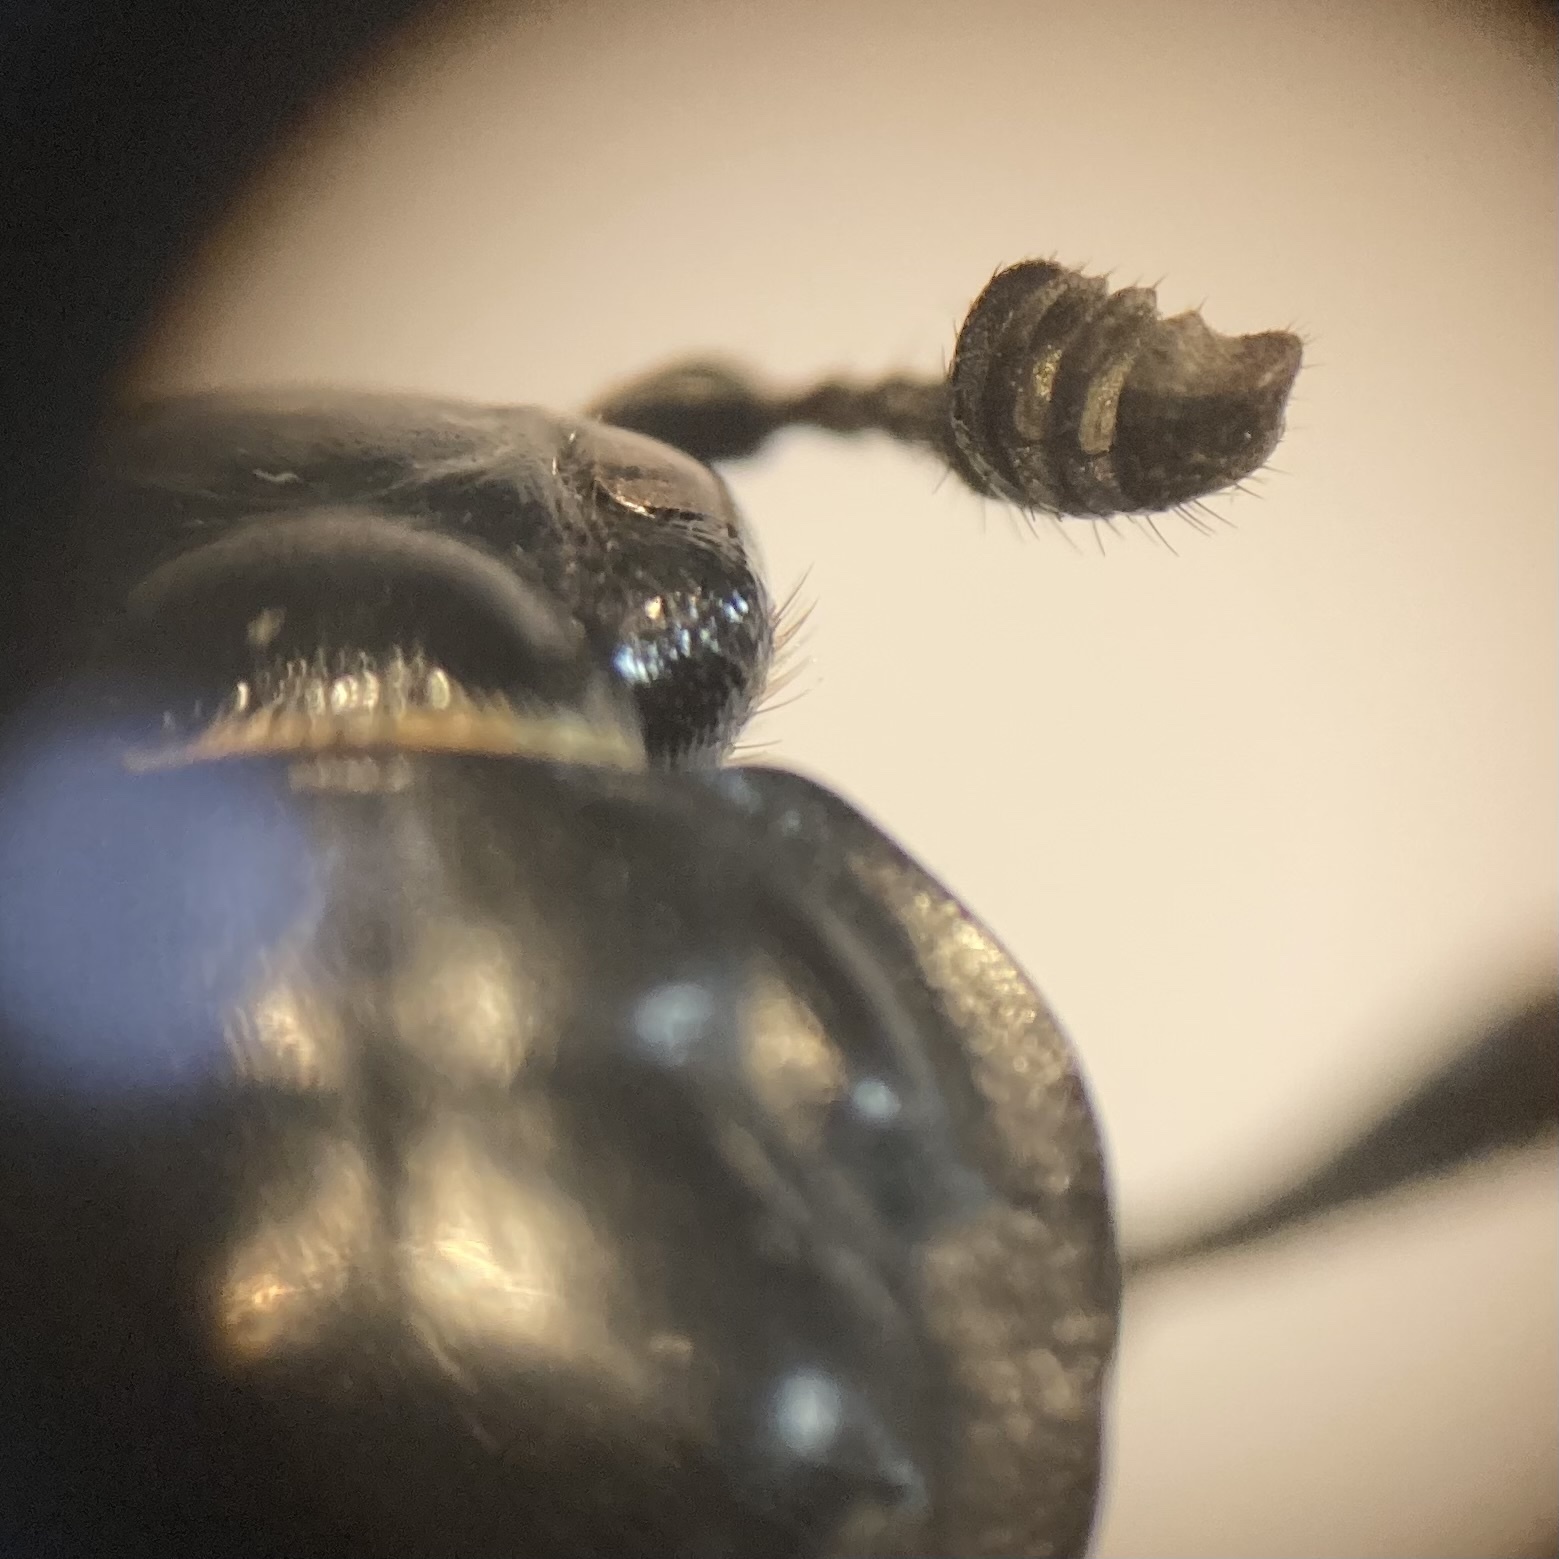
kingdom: Animalia
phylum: Arthropoda
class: Insecta
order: Coleoptera
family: Staphylinidae
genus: Nicrophorus
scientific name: Nicrophorus defodiens
